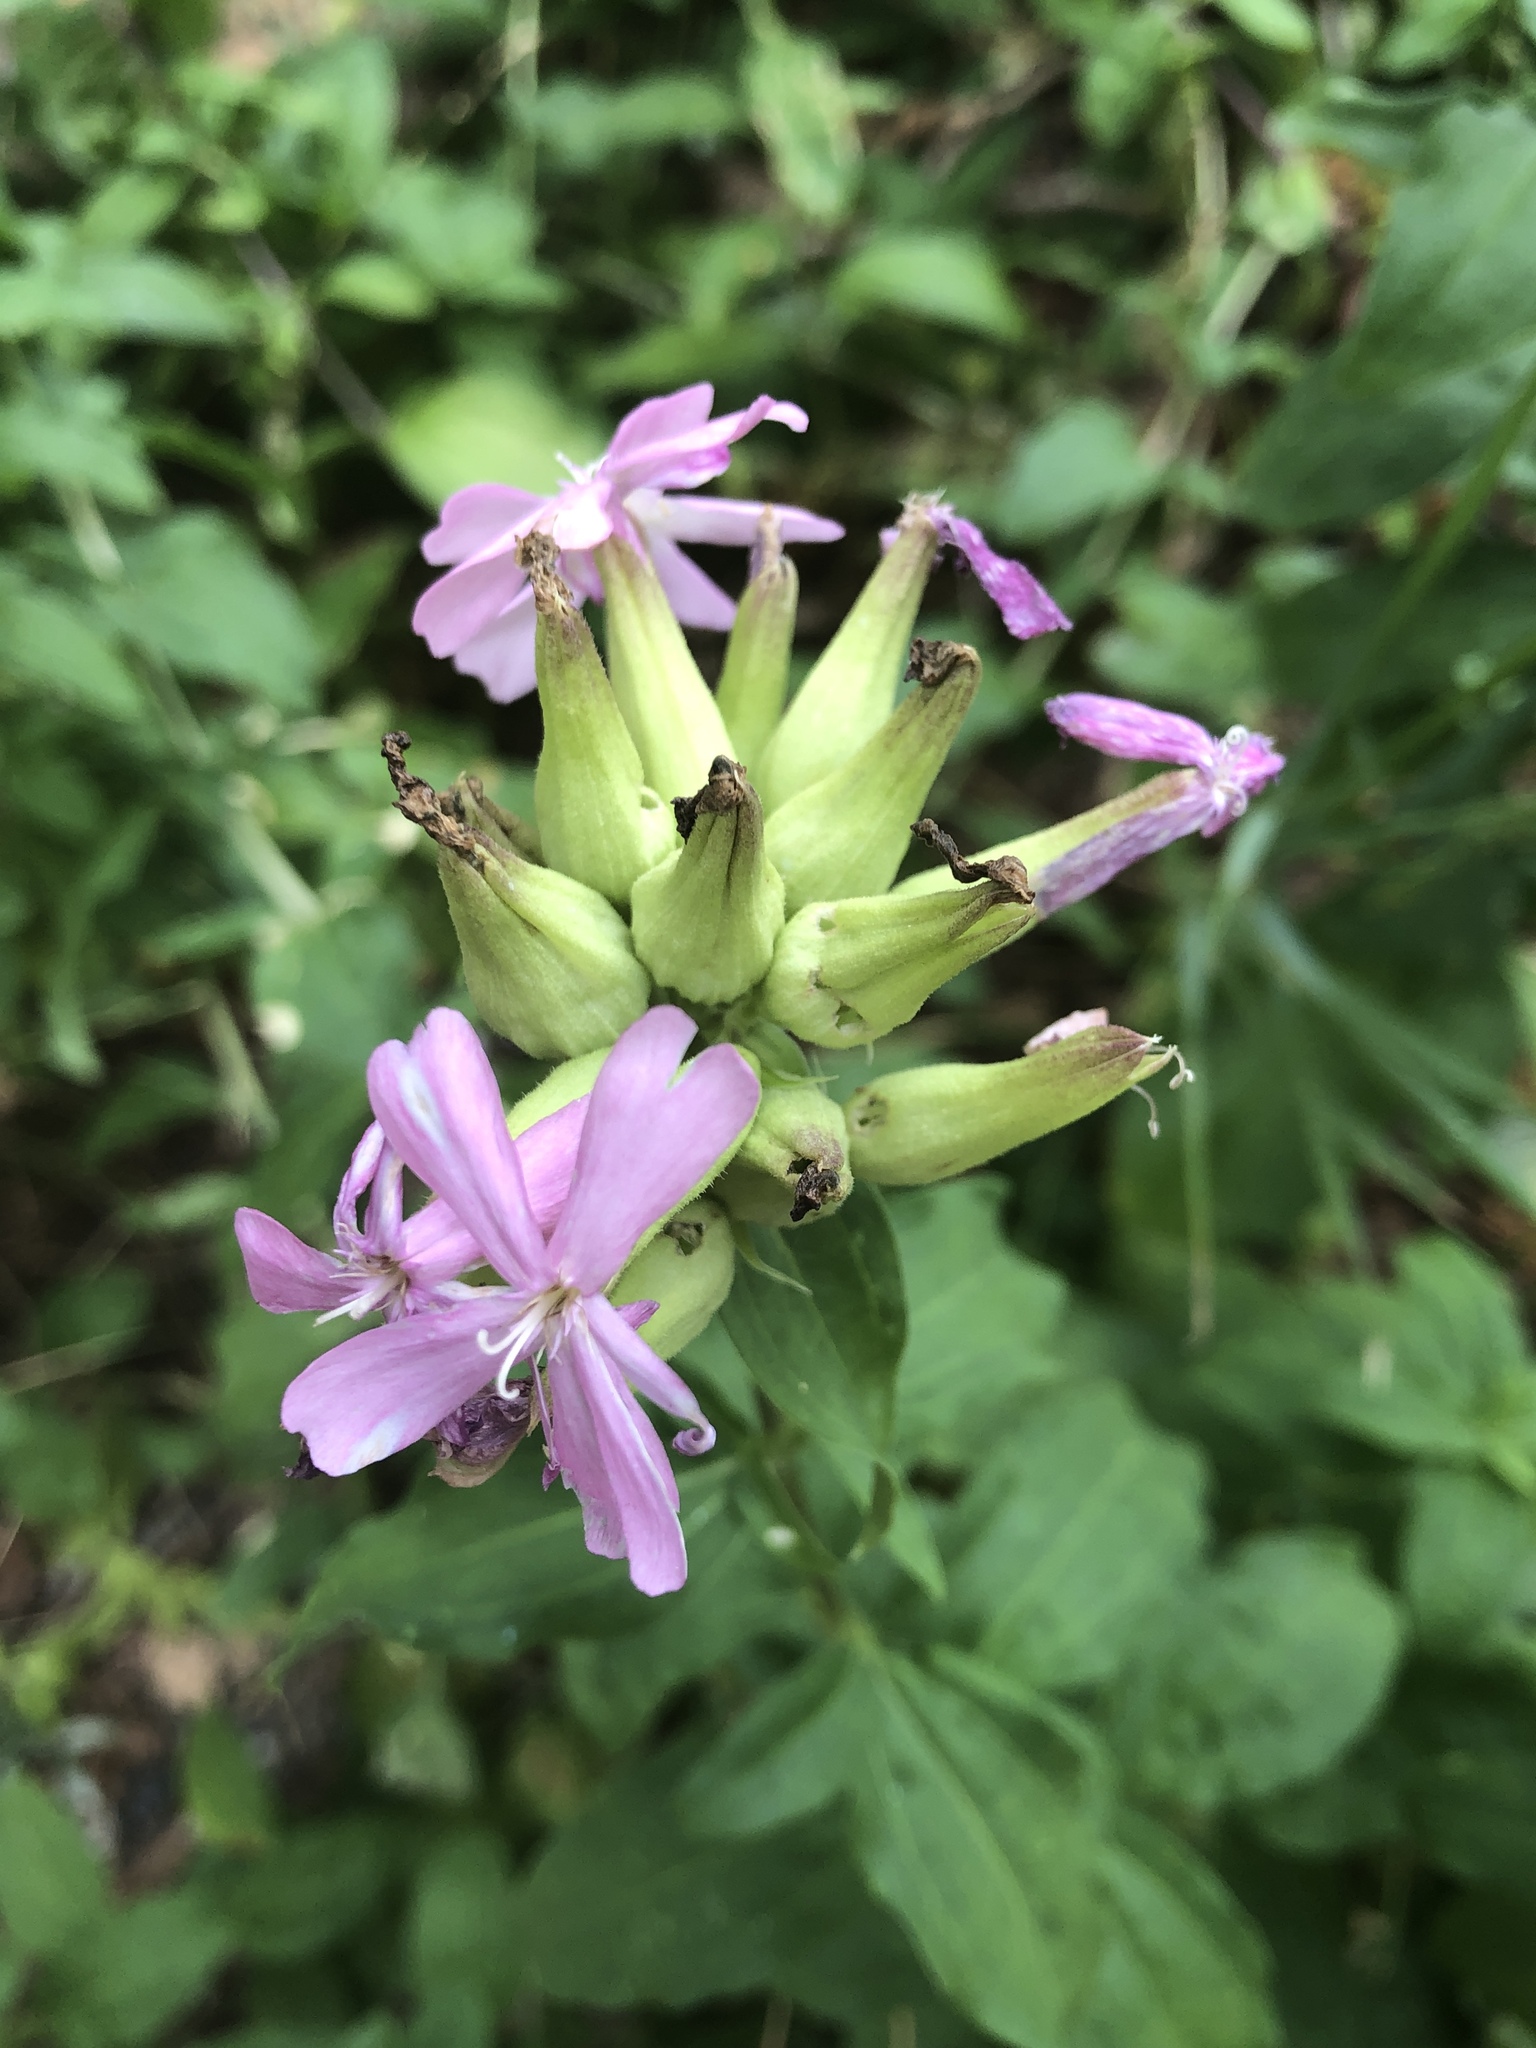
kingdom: Plantae
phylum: Tracheophyta
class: Magnoliopsida
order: Caryophyllales
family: Caryophyllaceae
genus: Saponaria
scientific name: Saponaria officinalis
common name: Soapwort
